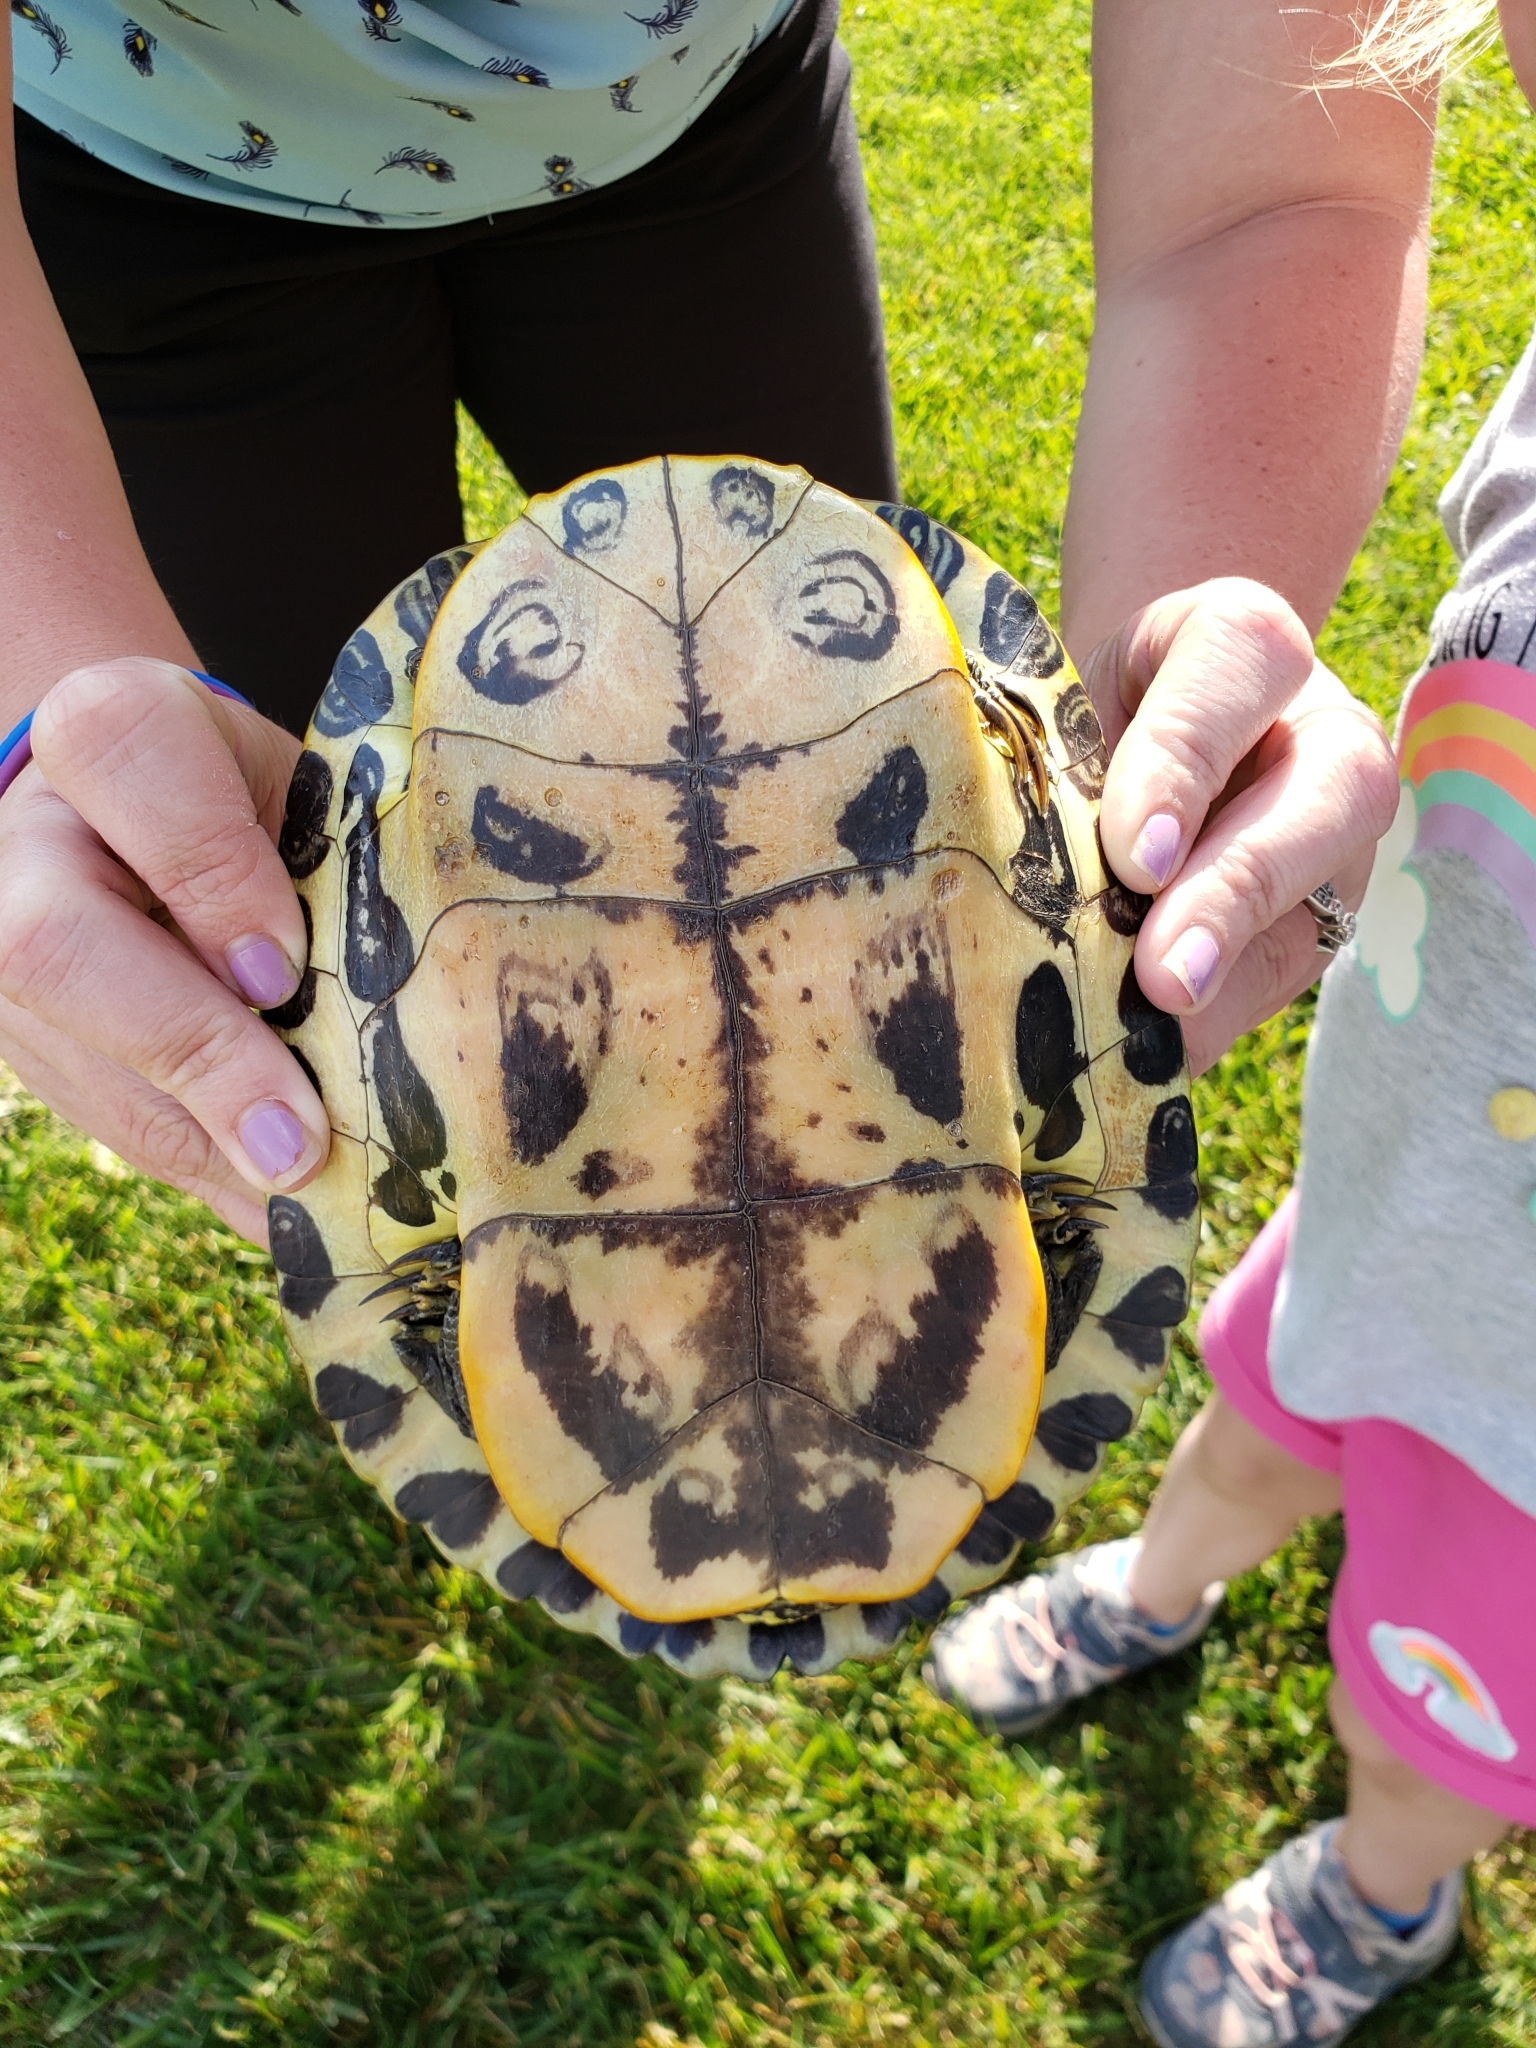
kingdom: Animalia
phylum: Chordata
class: Testudines
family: Emydidae
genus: Trachemys
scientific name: Trachemys scripta
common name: Slider
